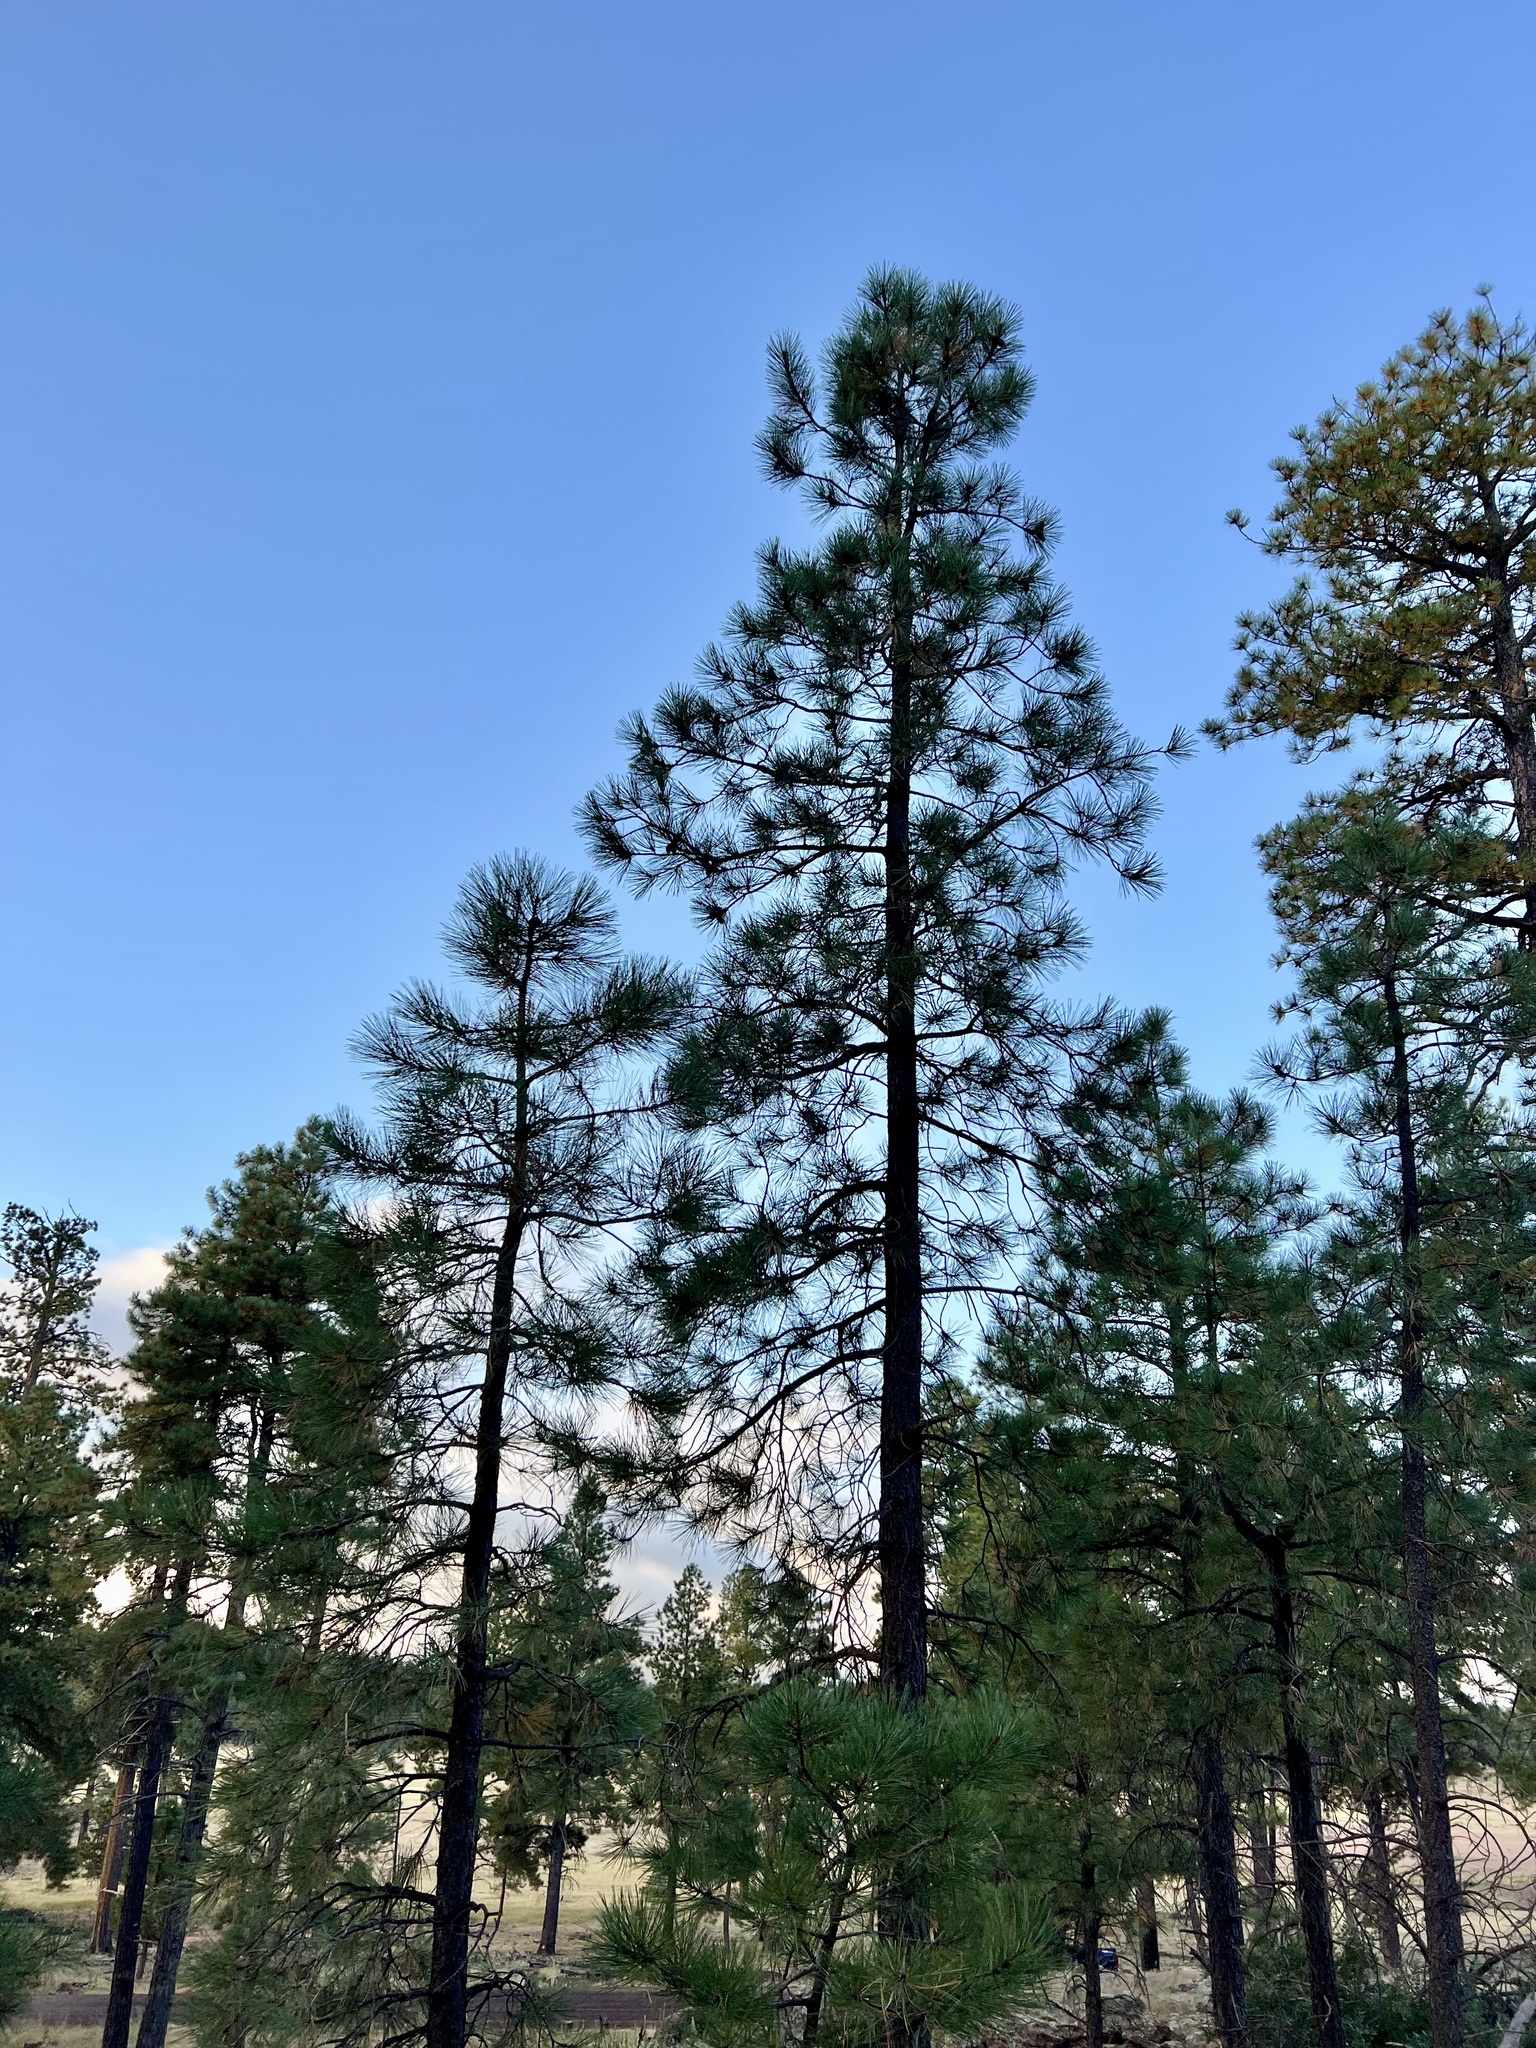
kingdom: Plantae
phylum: Tracheophyta
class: Pinopsida
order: Pinales
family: Pinaceae
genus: Pinus
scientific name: Pinus ponderosa
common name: Western yellow-pine
